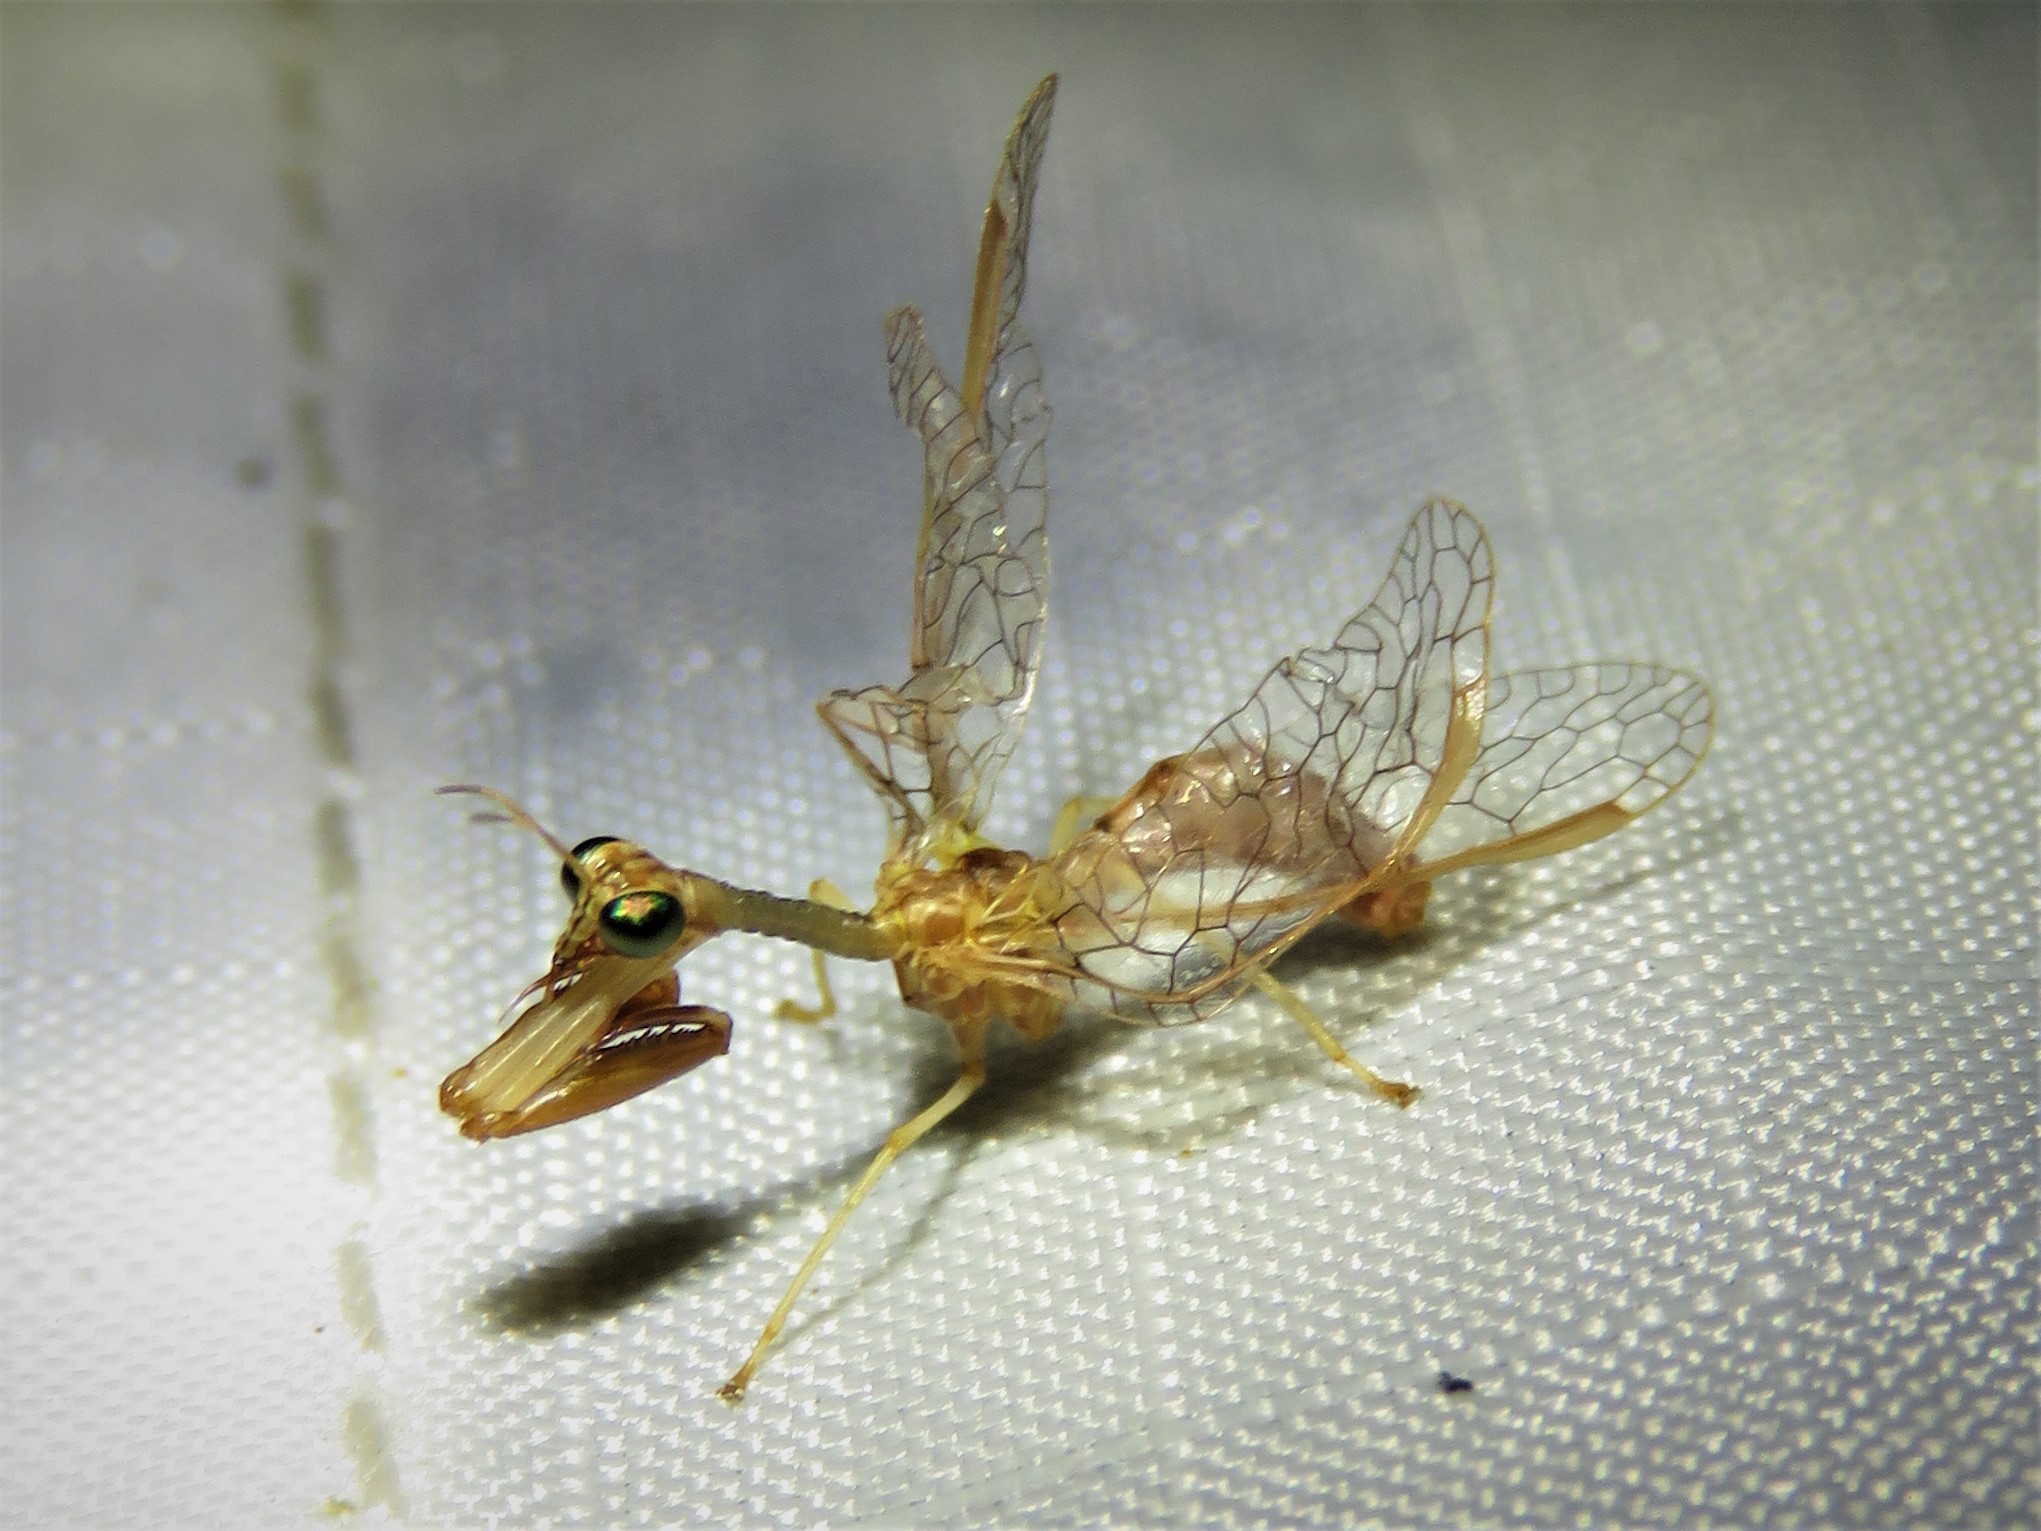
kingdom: Animalia
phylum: Arthropoda
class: Insecta
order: Neuroptera
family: Mantispidae
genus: Dicromantispa
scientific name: Dicromantispa sayi
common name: Say's mantidfly
